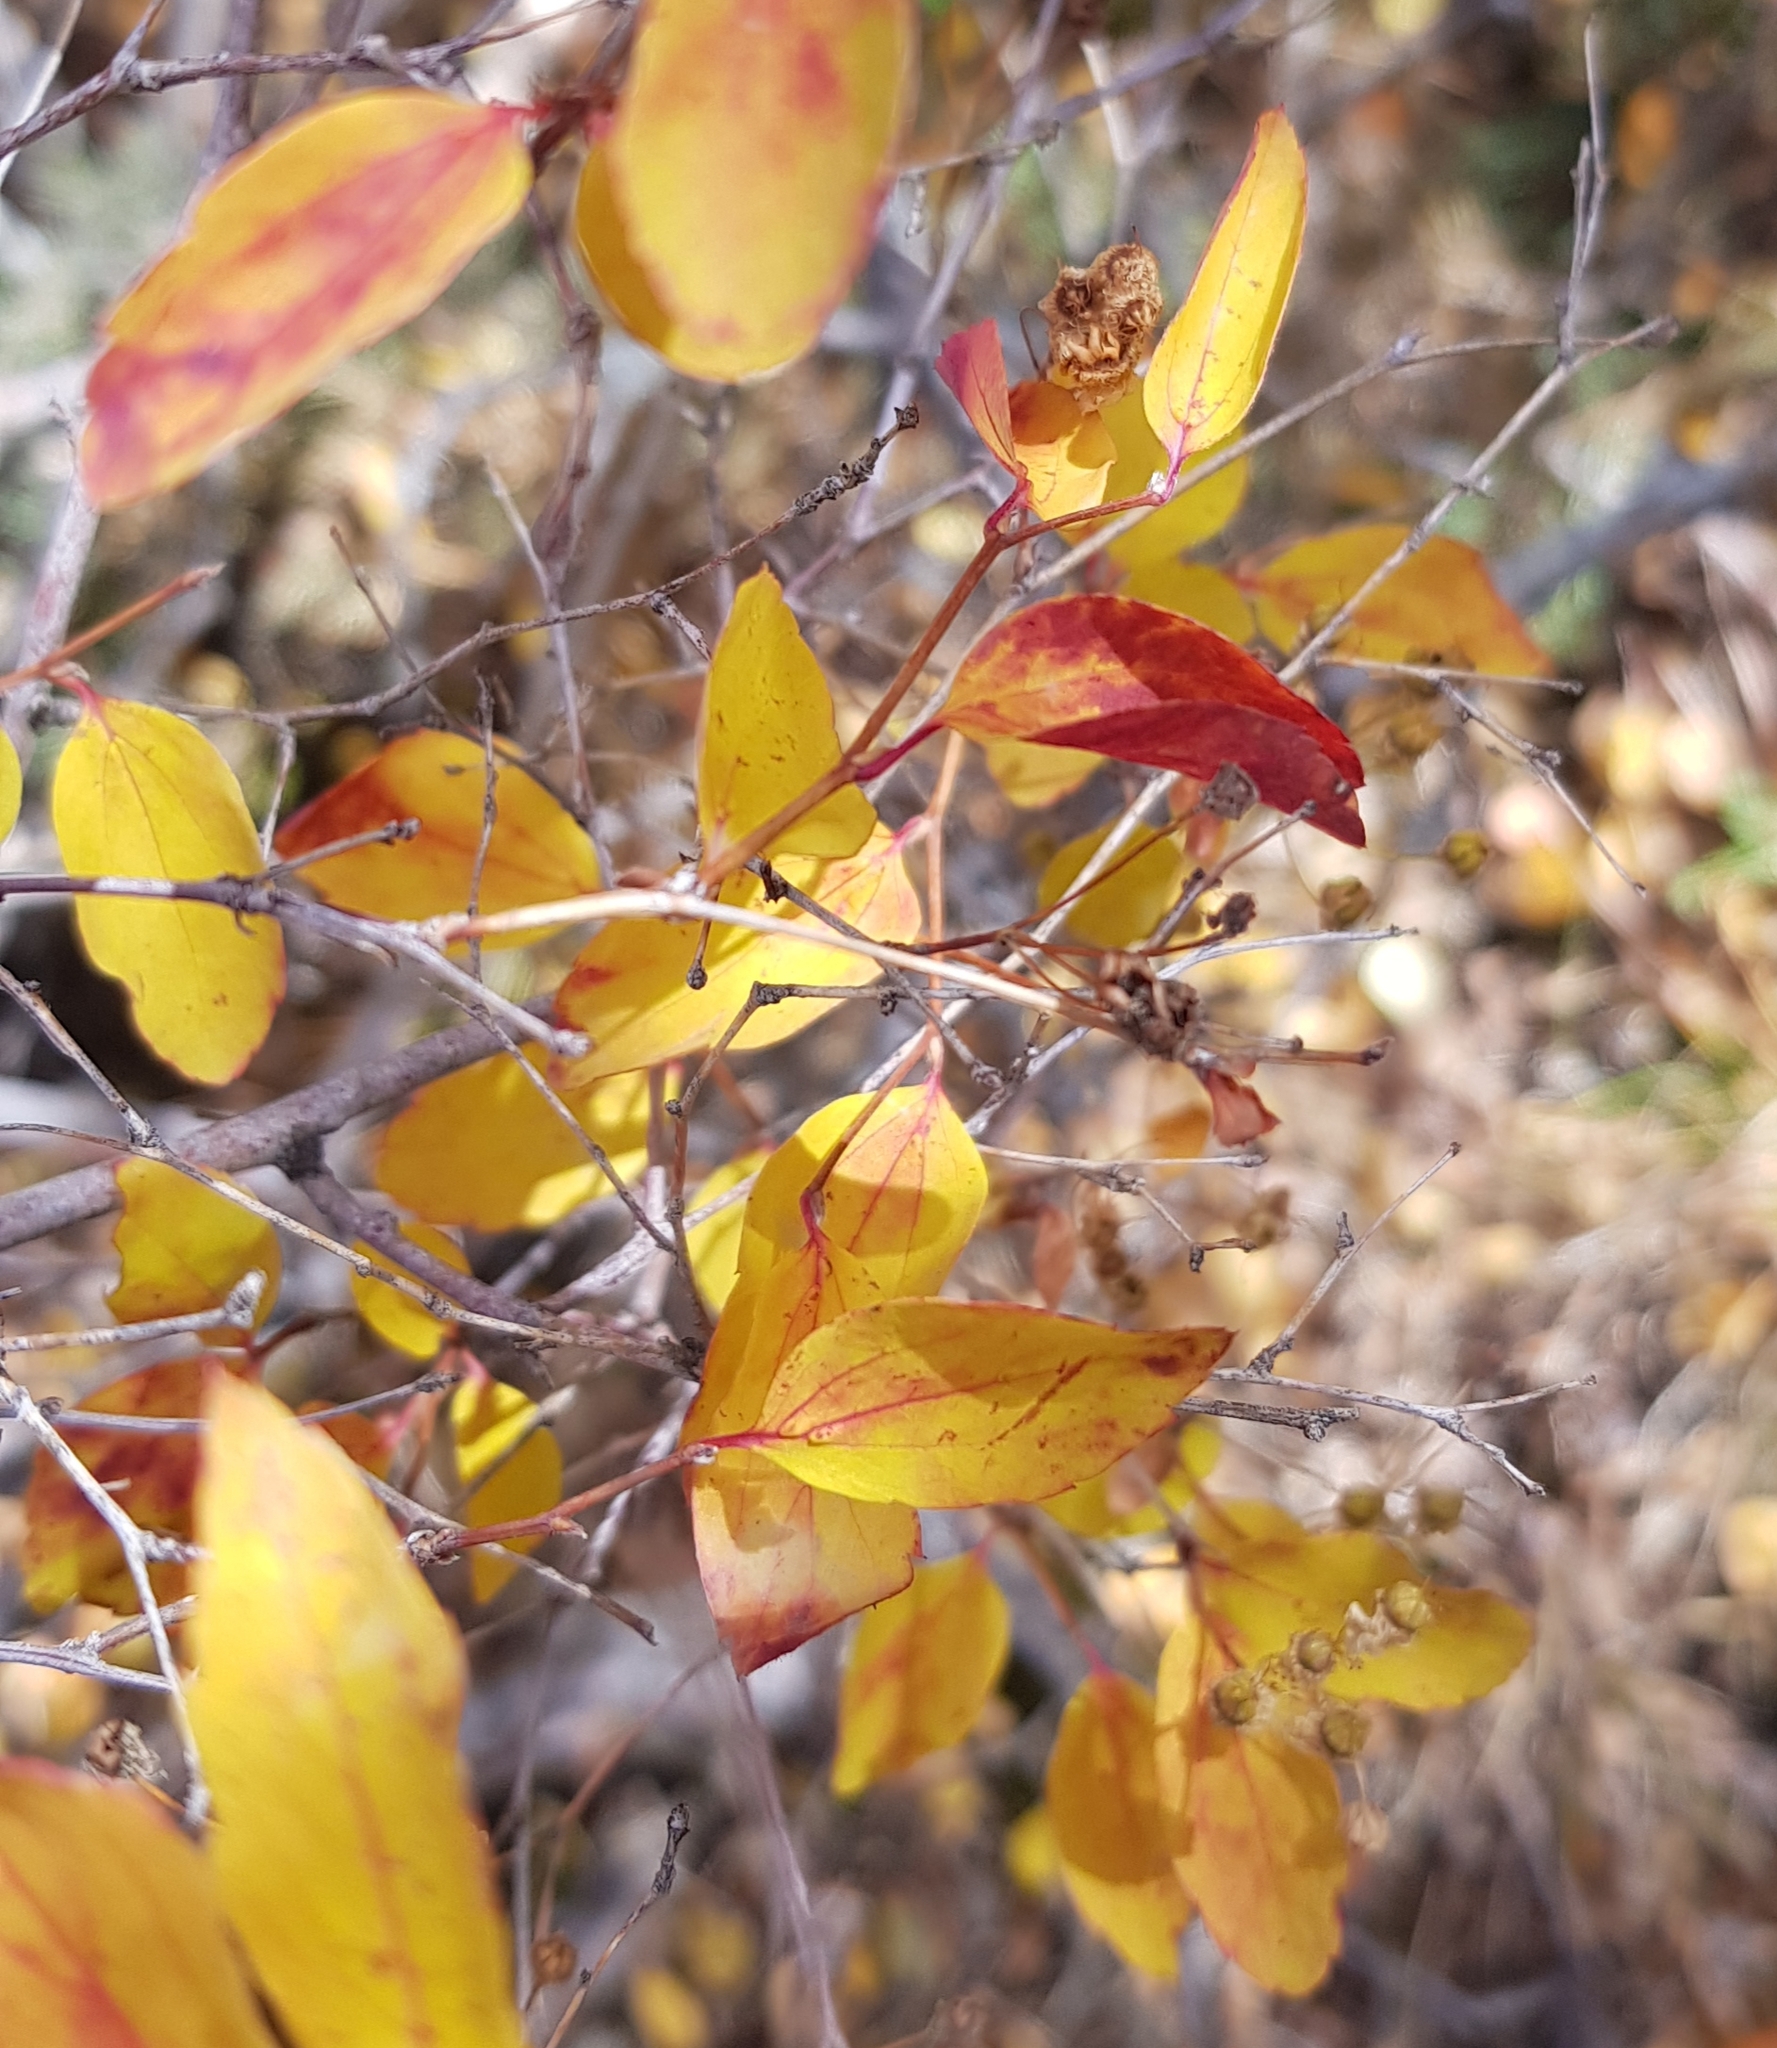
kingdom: Plantae
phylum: Tracheophyta
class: Magnoliopsida
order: Rosales
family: Rosaceae
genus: Spiraea
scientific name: Spiraea media
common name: Russian spiraea
